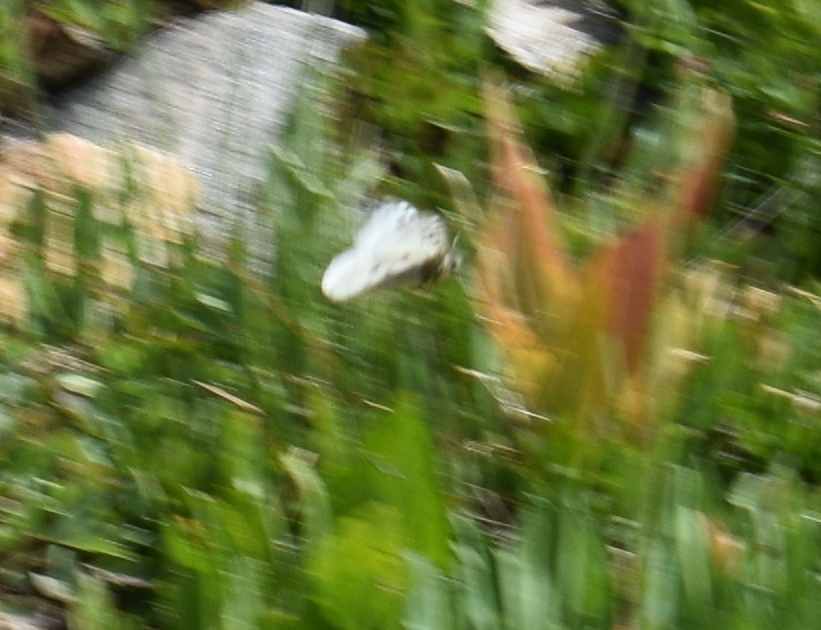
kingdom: Animalia
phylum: Arthropoda
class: Insecta
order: Lepidoptera
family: Papilionidae
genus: Parnassius
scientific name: Parnassius smintheus
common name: Mountain parnassian
